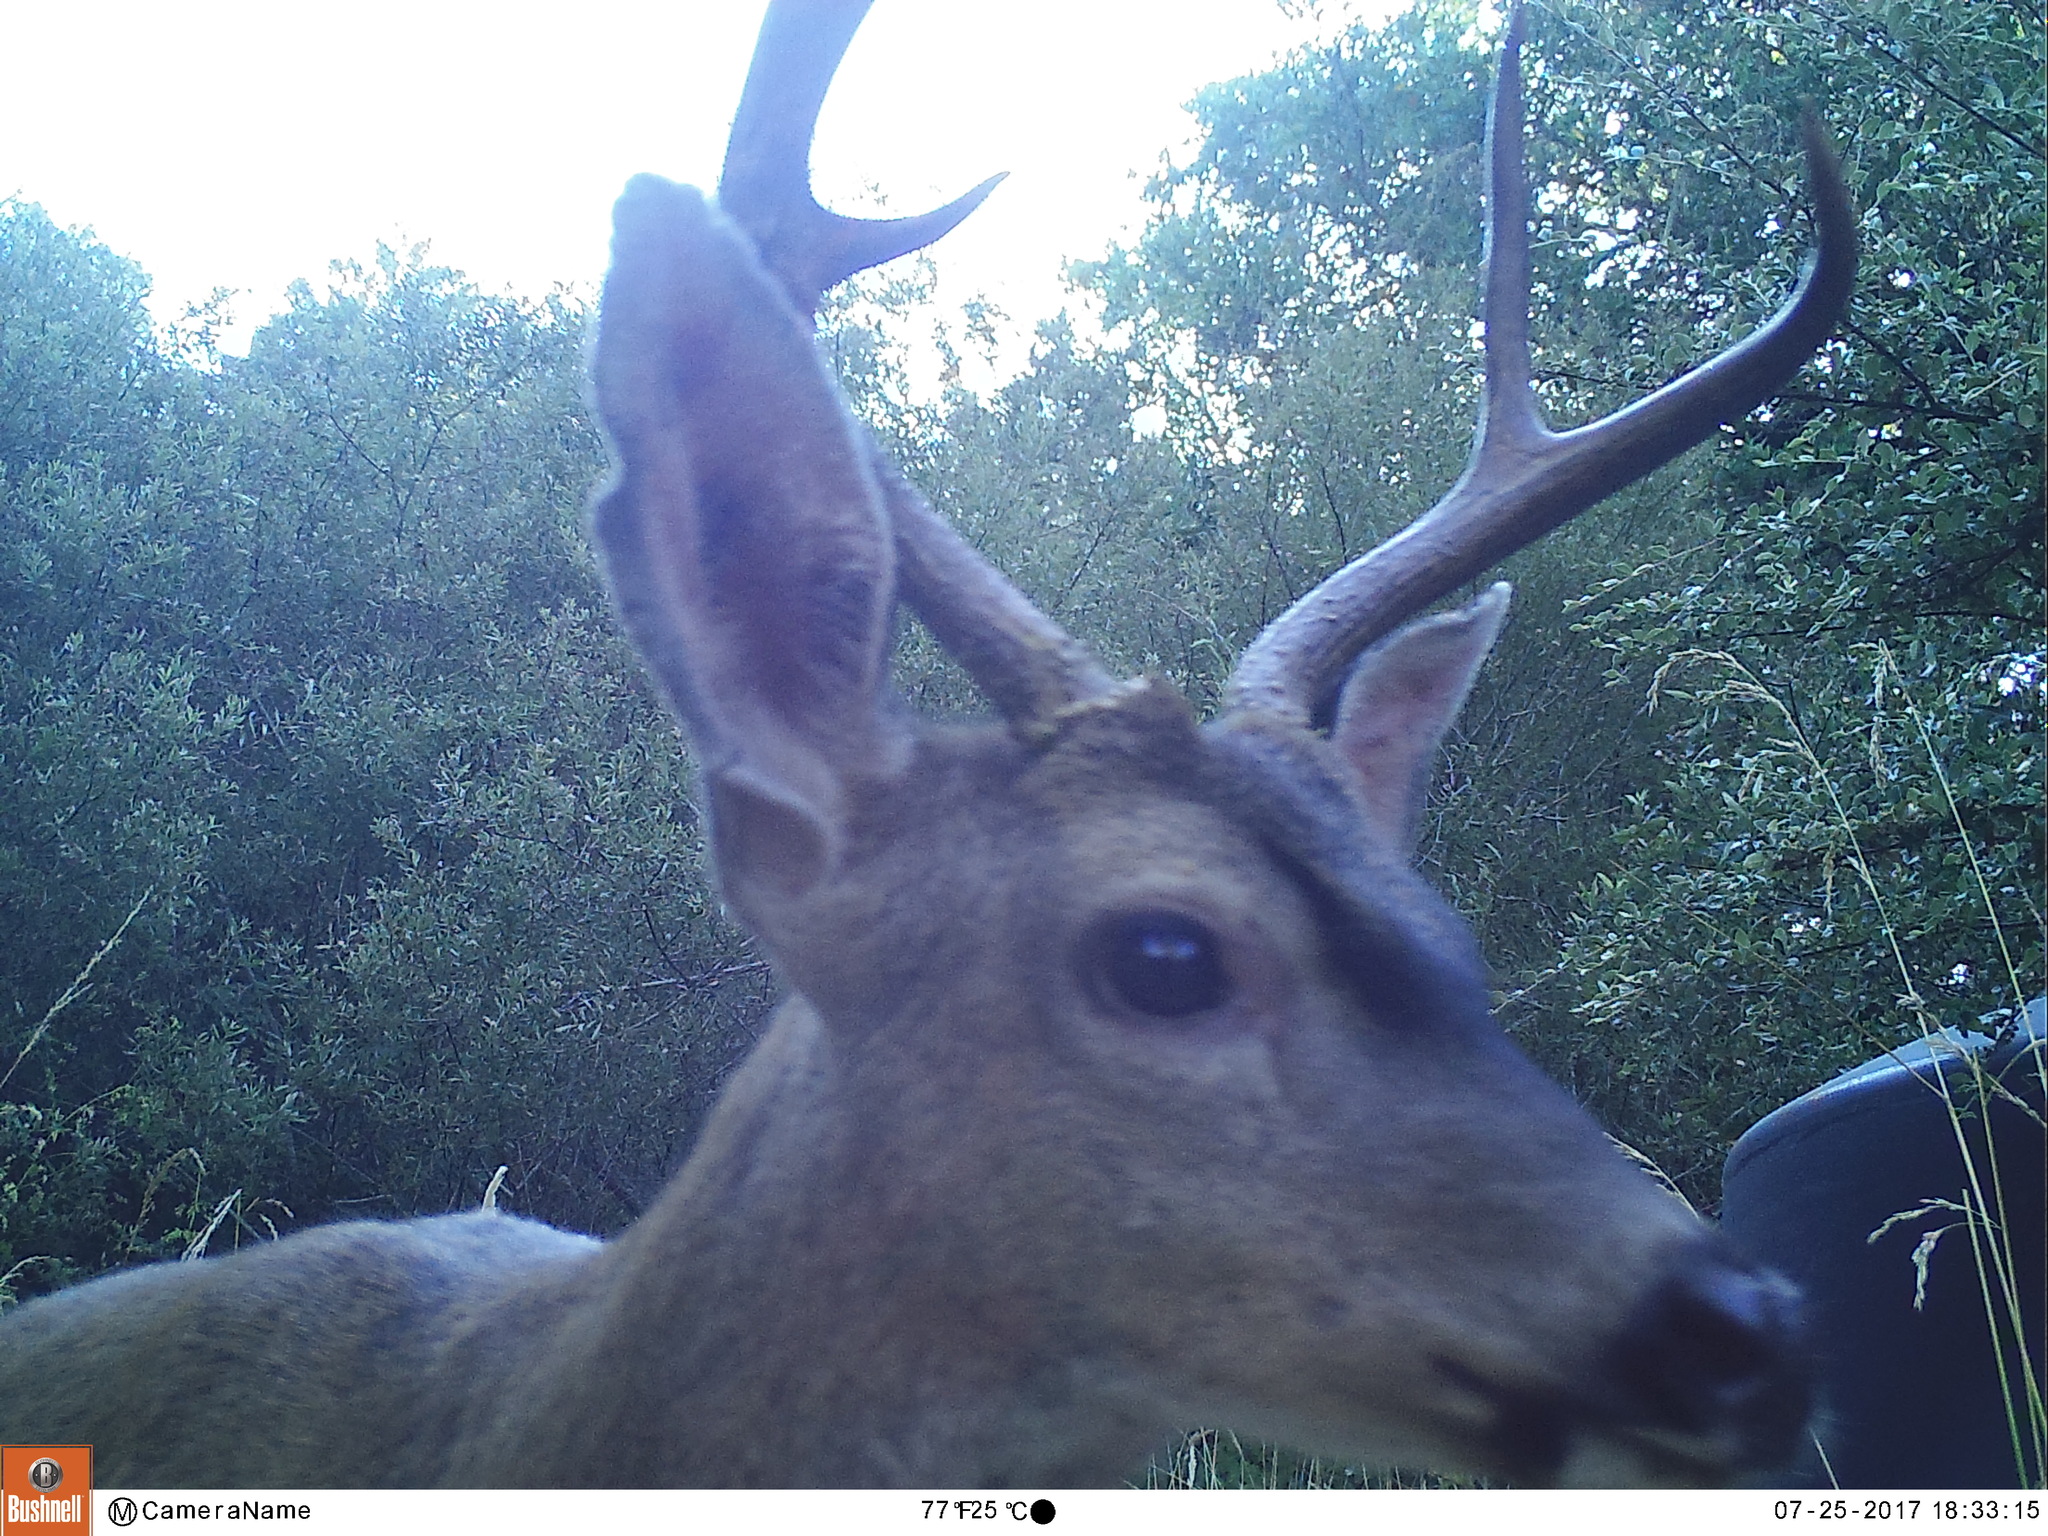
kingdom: Animalia
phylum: Chordata
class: Mammalia
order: Artiodactyla
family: Cervidae
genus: Odocoileus
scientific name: Odocoileus hemionus
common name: Mule deer
